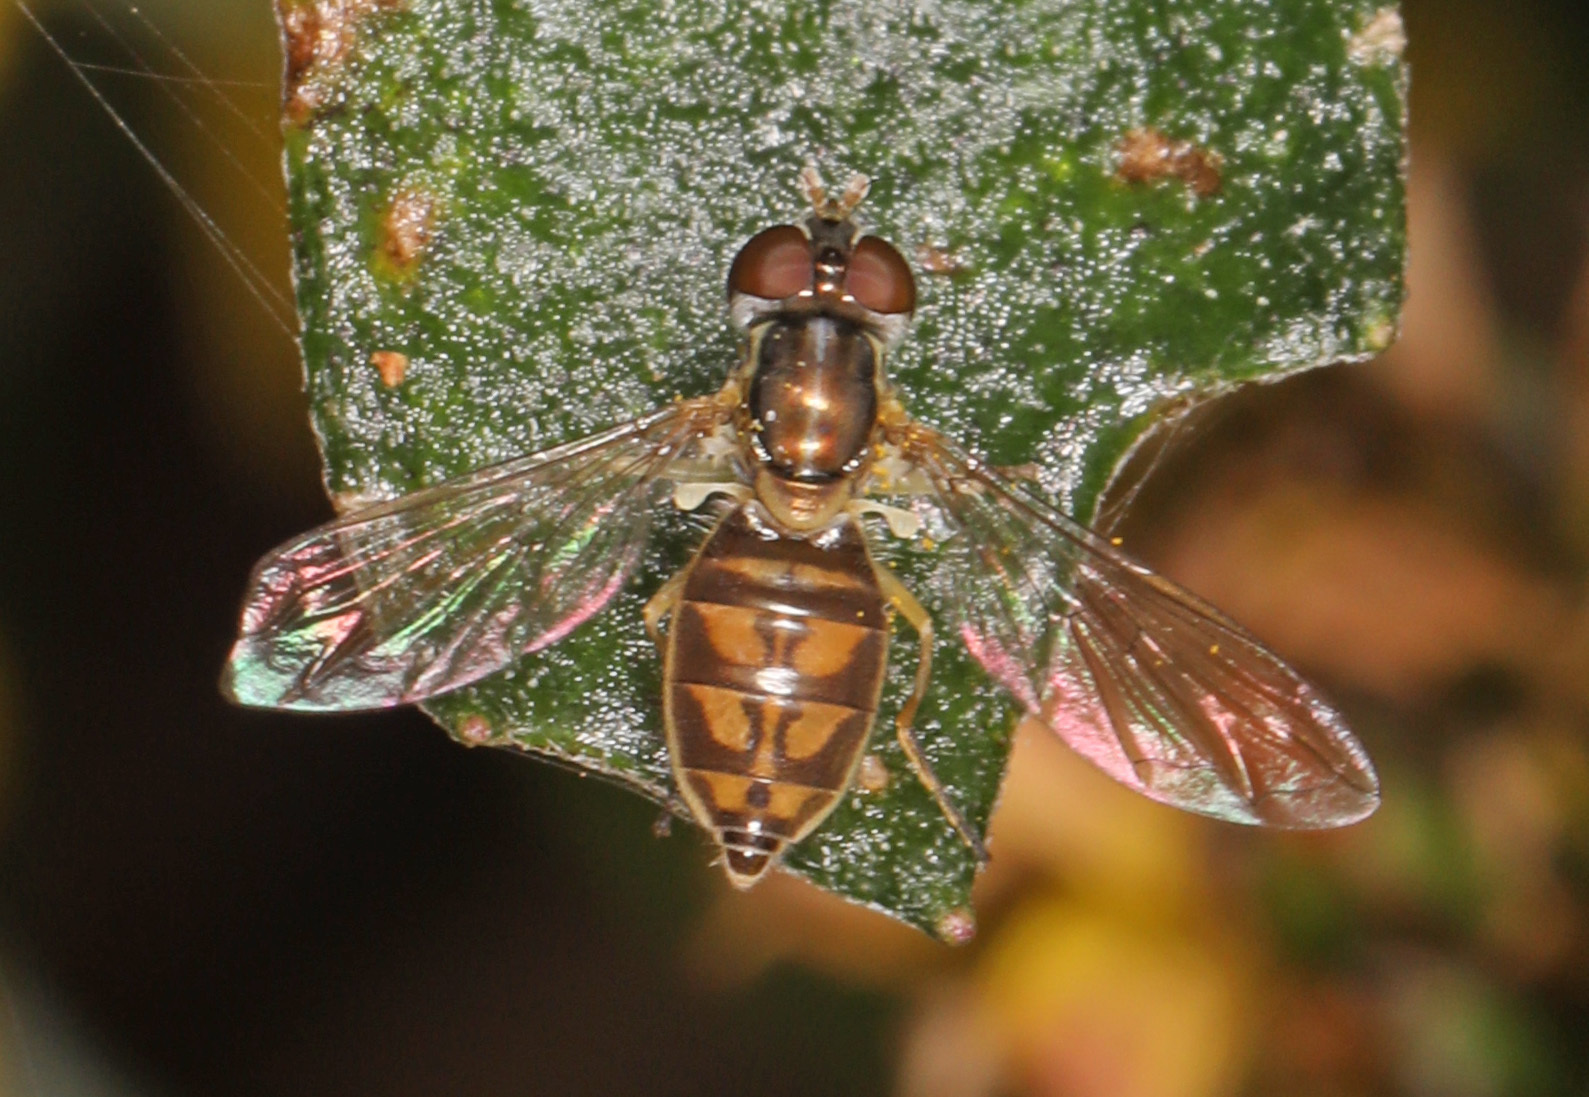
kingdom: Animalia
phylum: Arthropoda
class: Insecta
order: Diptera
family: Syrphidae
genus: Toxomerus
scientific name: Toxomerus marginatus
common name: Syrphid fly
